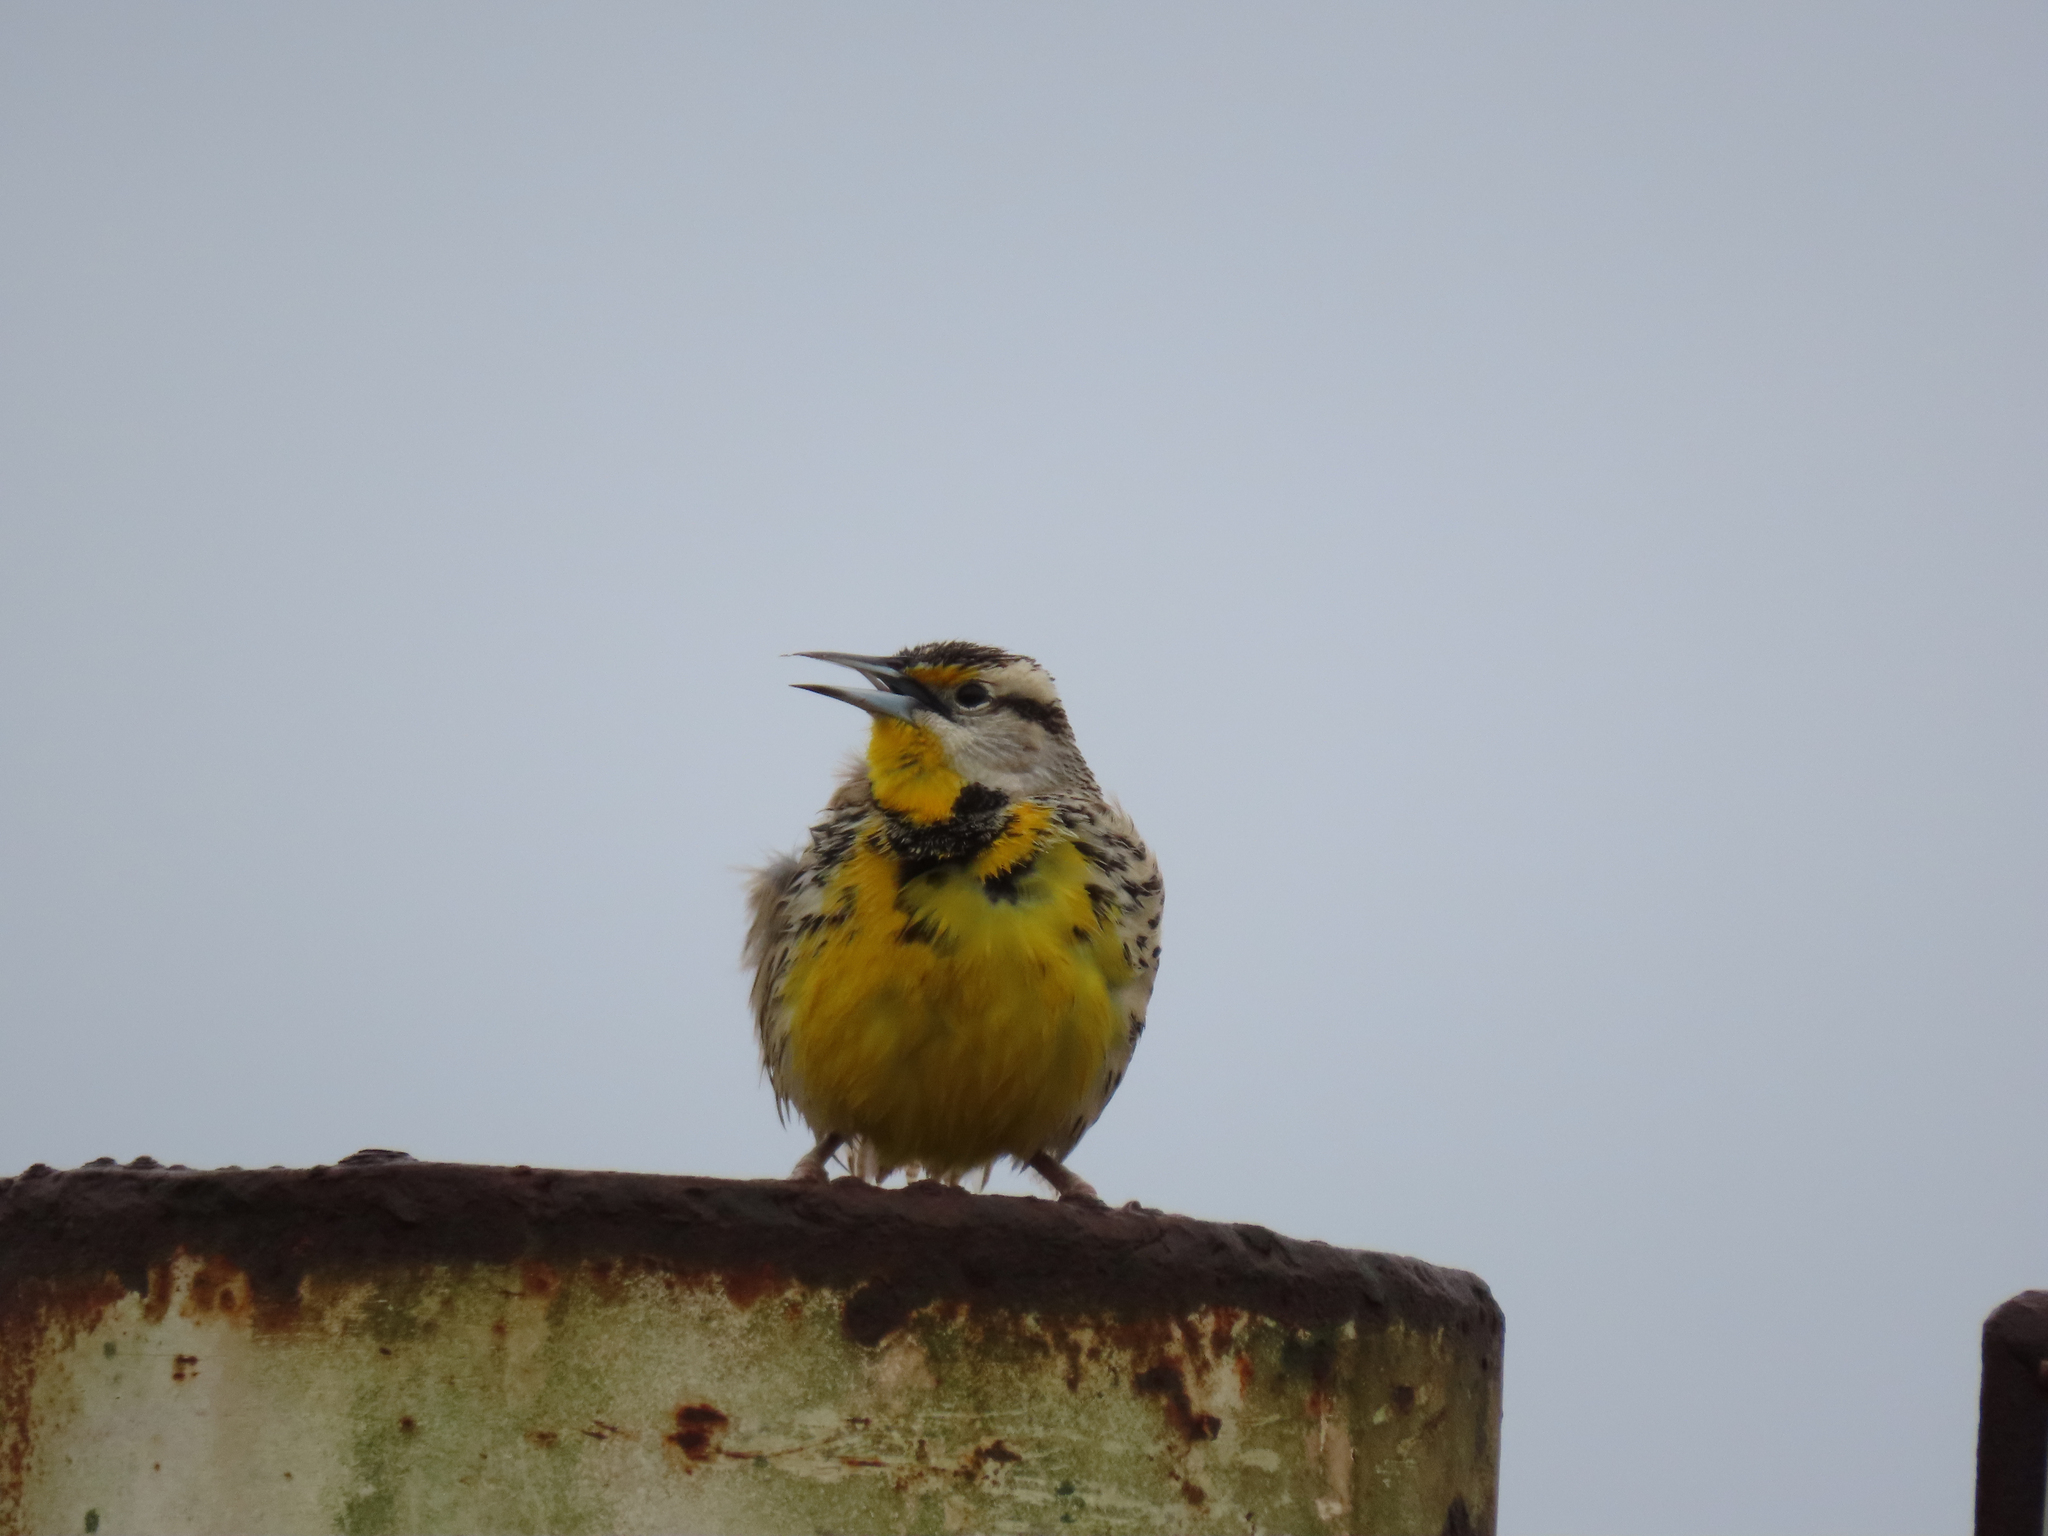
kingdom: Animalia
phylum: Chordata
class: Aves
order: Passeriformes
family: Icteridae
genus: Sturnella
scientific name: Sturnella magna
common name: Eastern meadowlark
